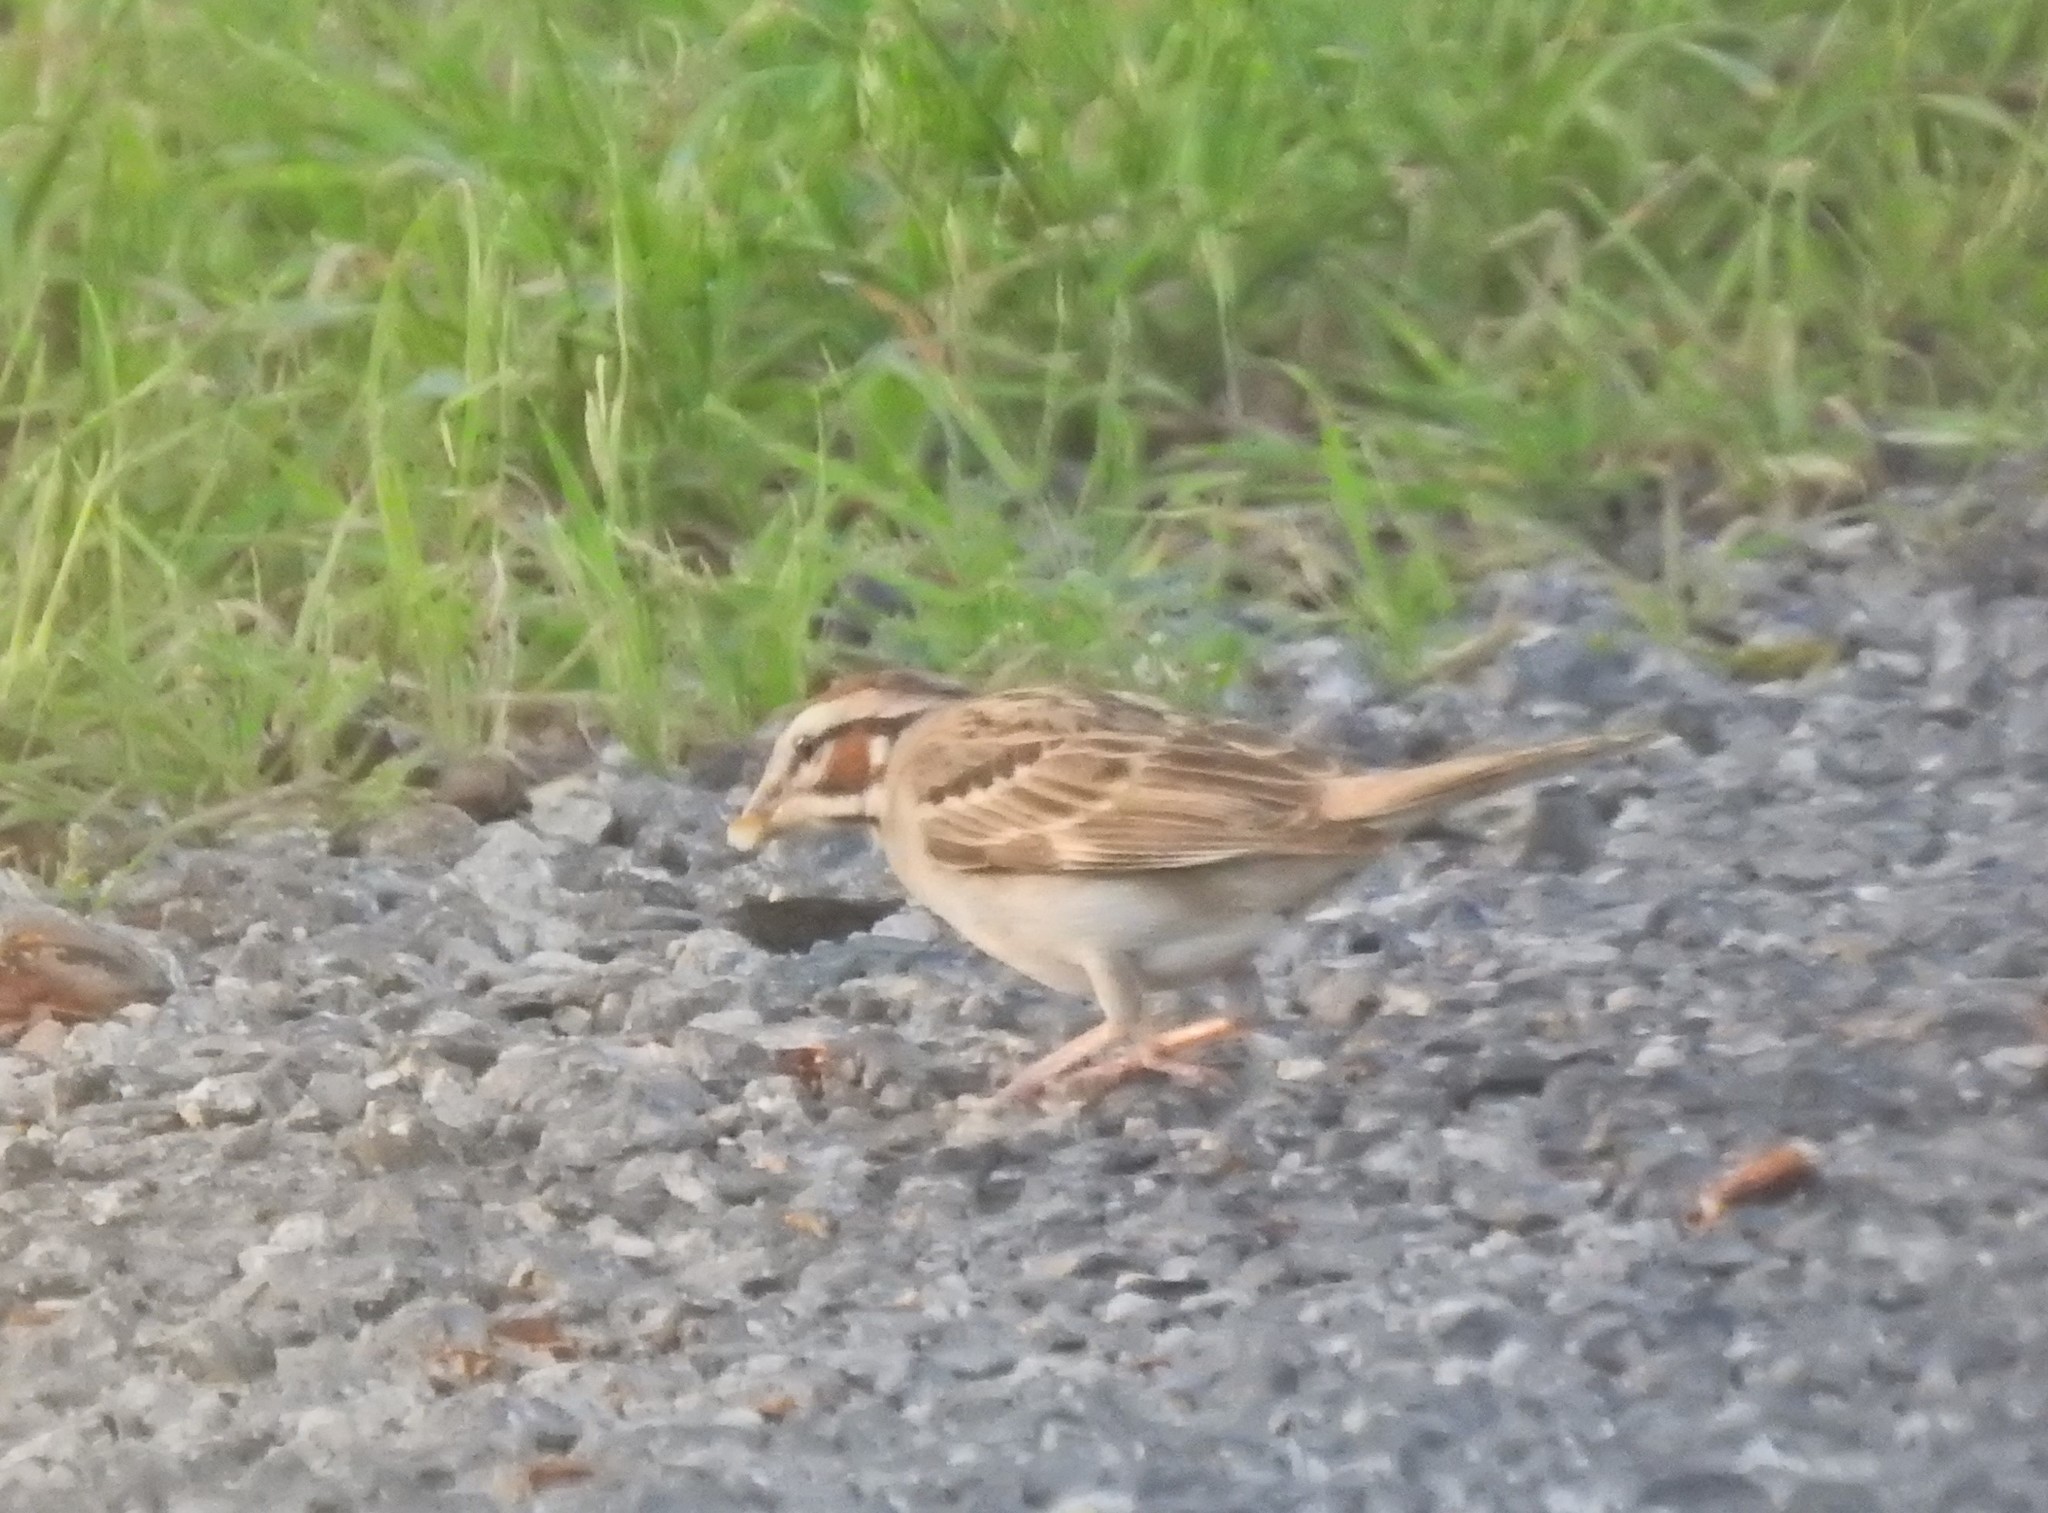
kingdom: Animalia
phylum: Chordata
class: Aves
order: Passeriformes
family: Passerellidae
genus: Chondestes
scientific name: Chondestes grammacus
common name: Lark sparrow
